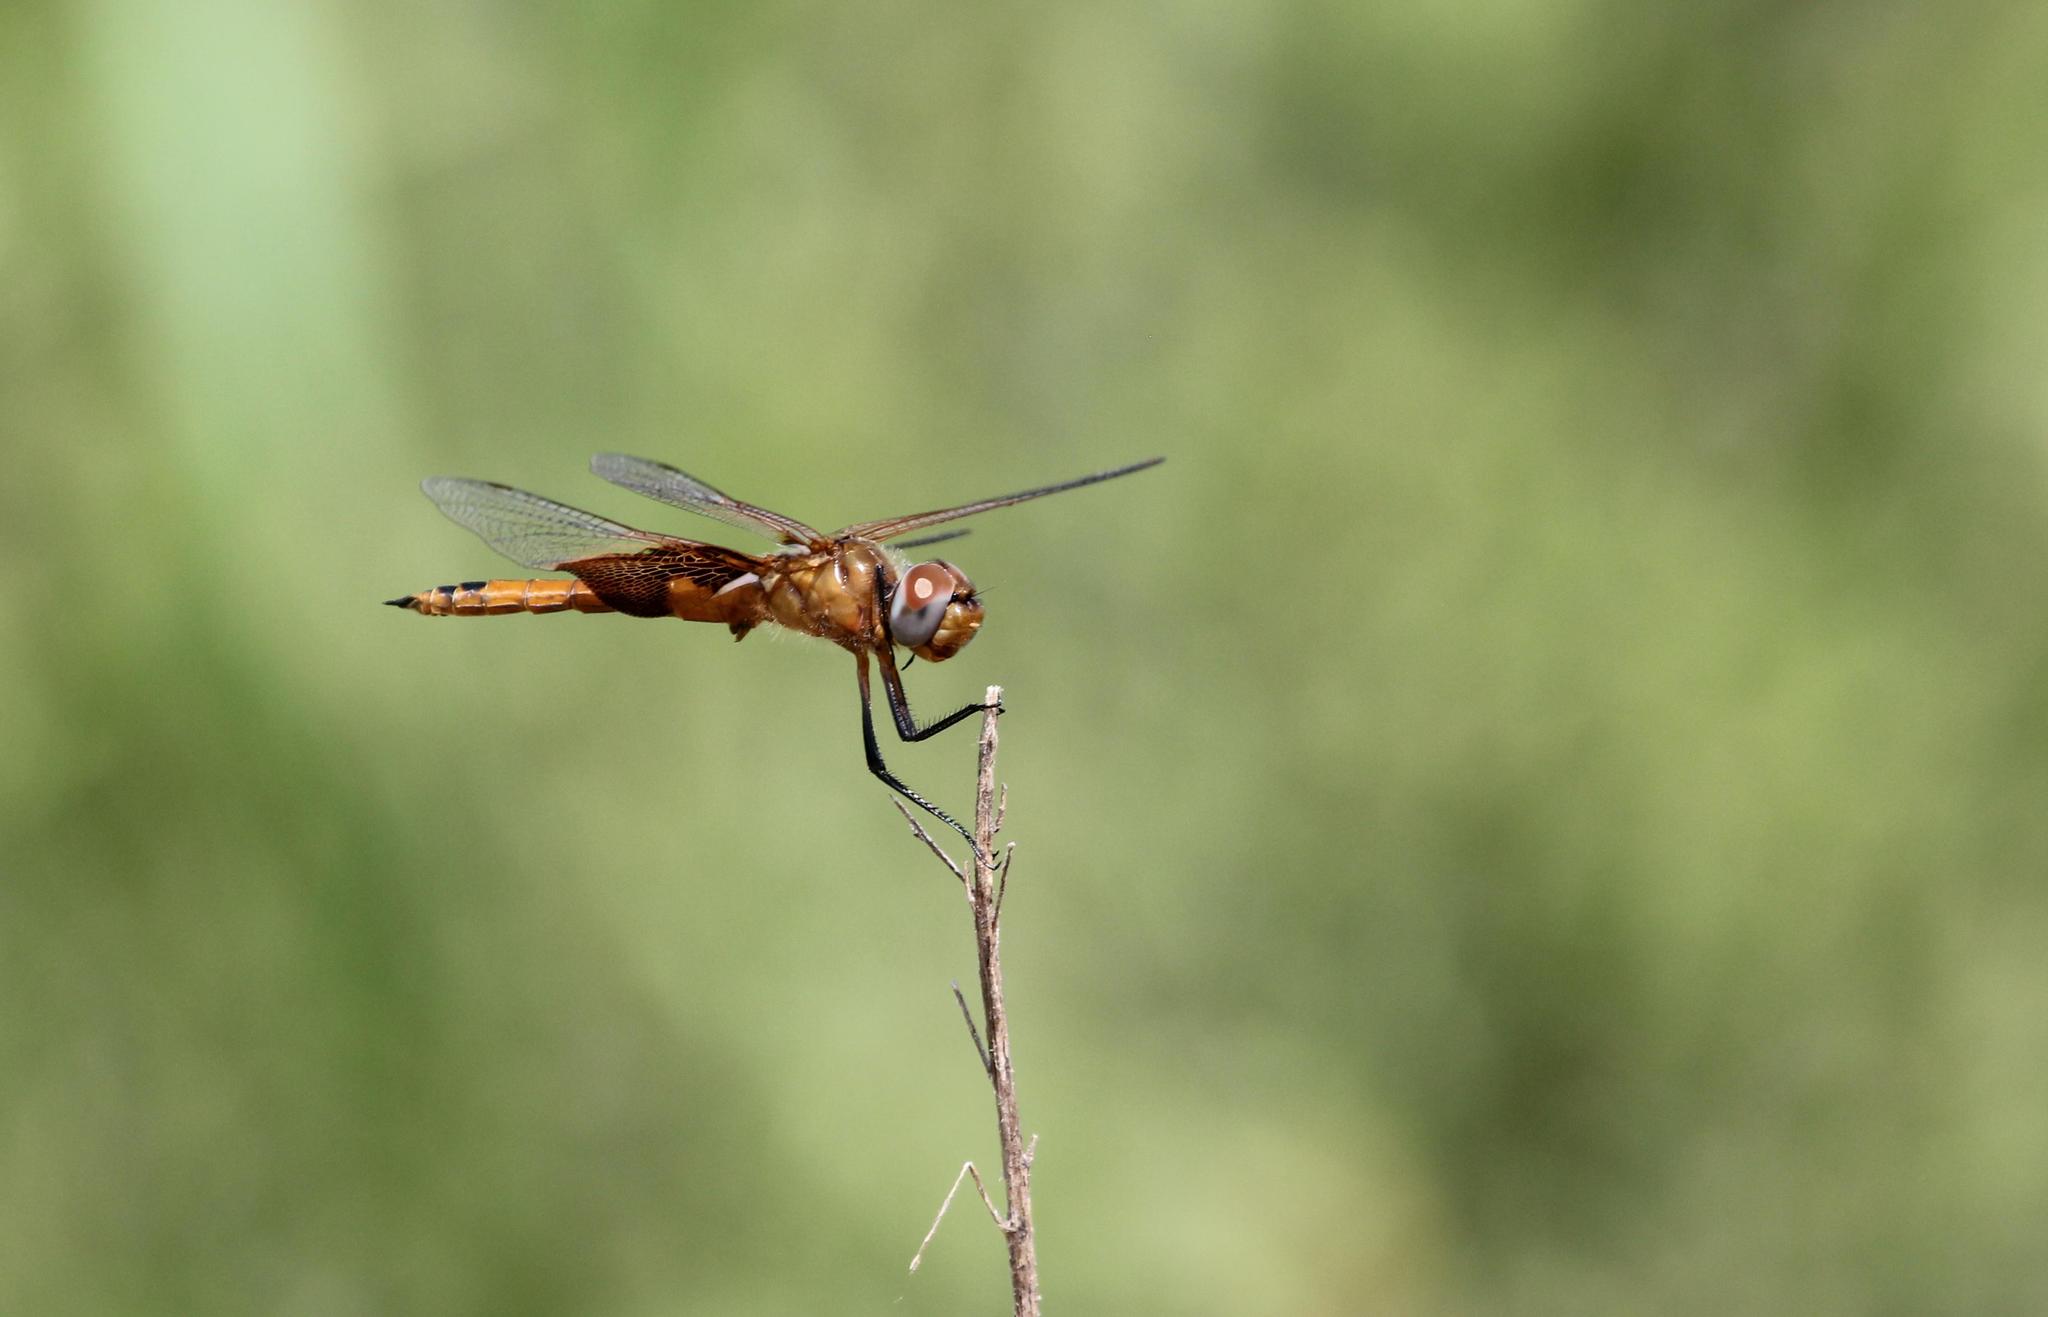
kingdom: Animalia
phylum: Arthropoda
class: Insecta
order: Odonata
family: Libellulidae
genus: Tramea
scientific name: Tramea onusta
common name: Red saddlebags
